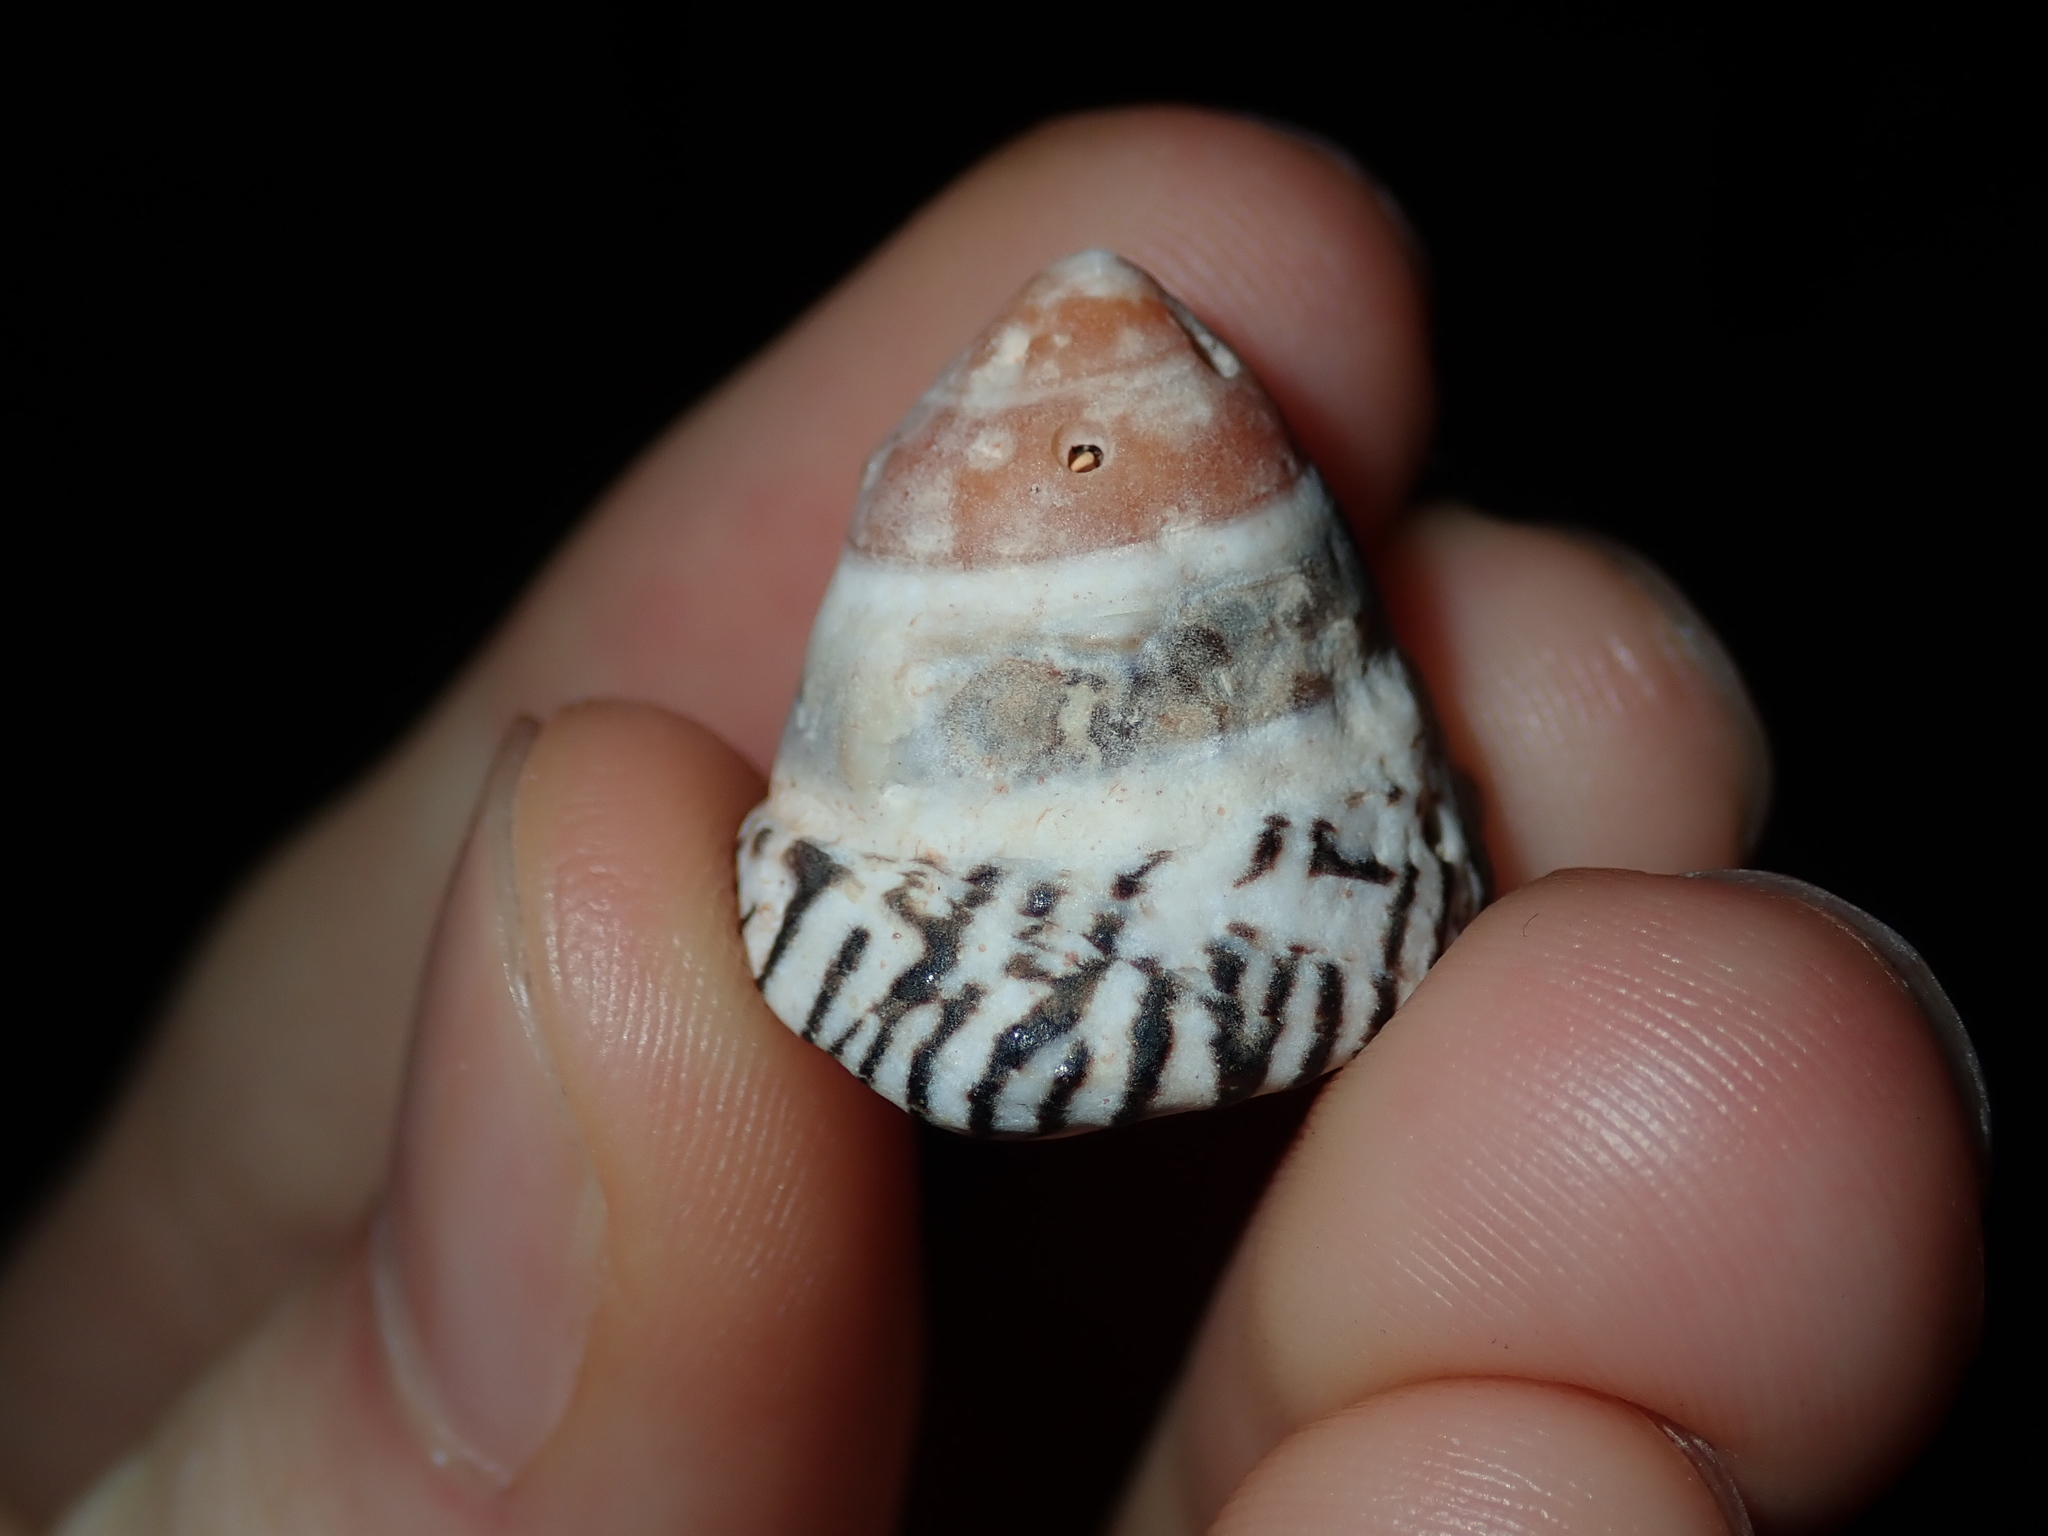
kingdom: Animalia
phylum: Mollusca
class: Gastropoda
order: Littorinimorpha
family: Littorinidae
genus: Bembicium
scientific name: Bembicium nanum
